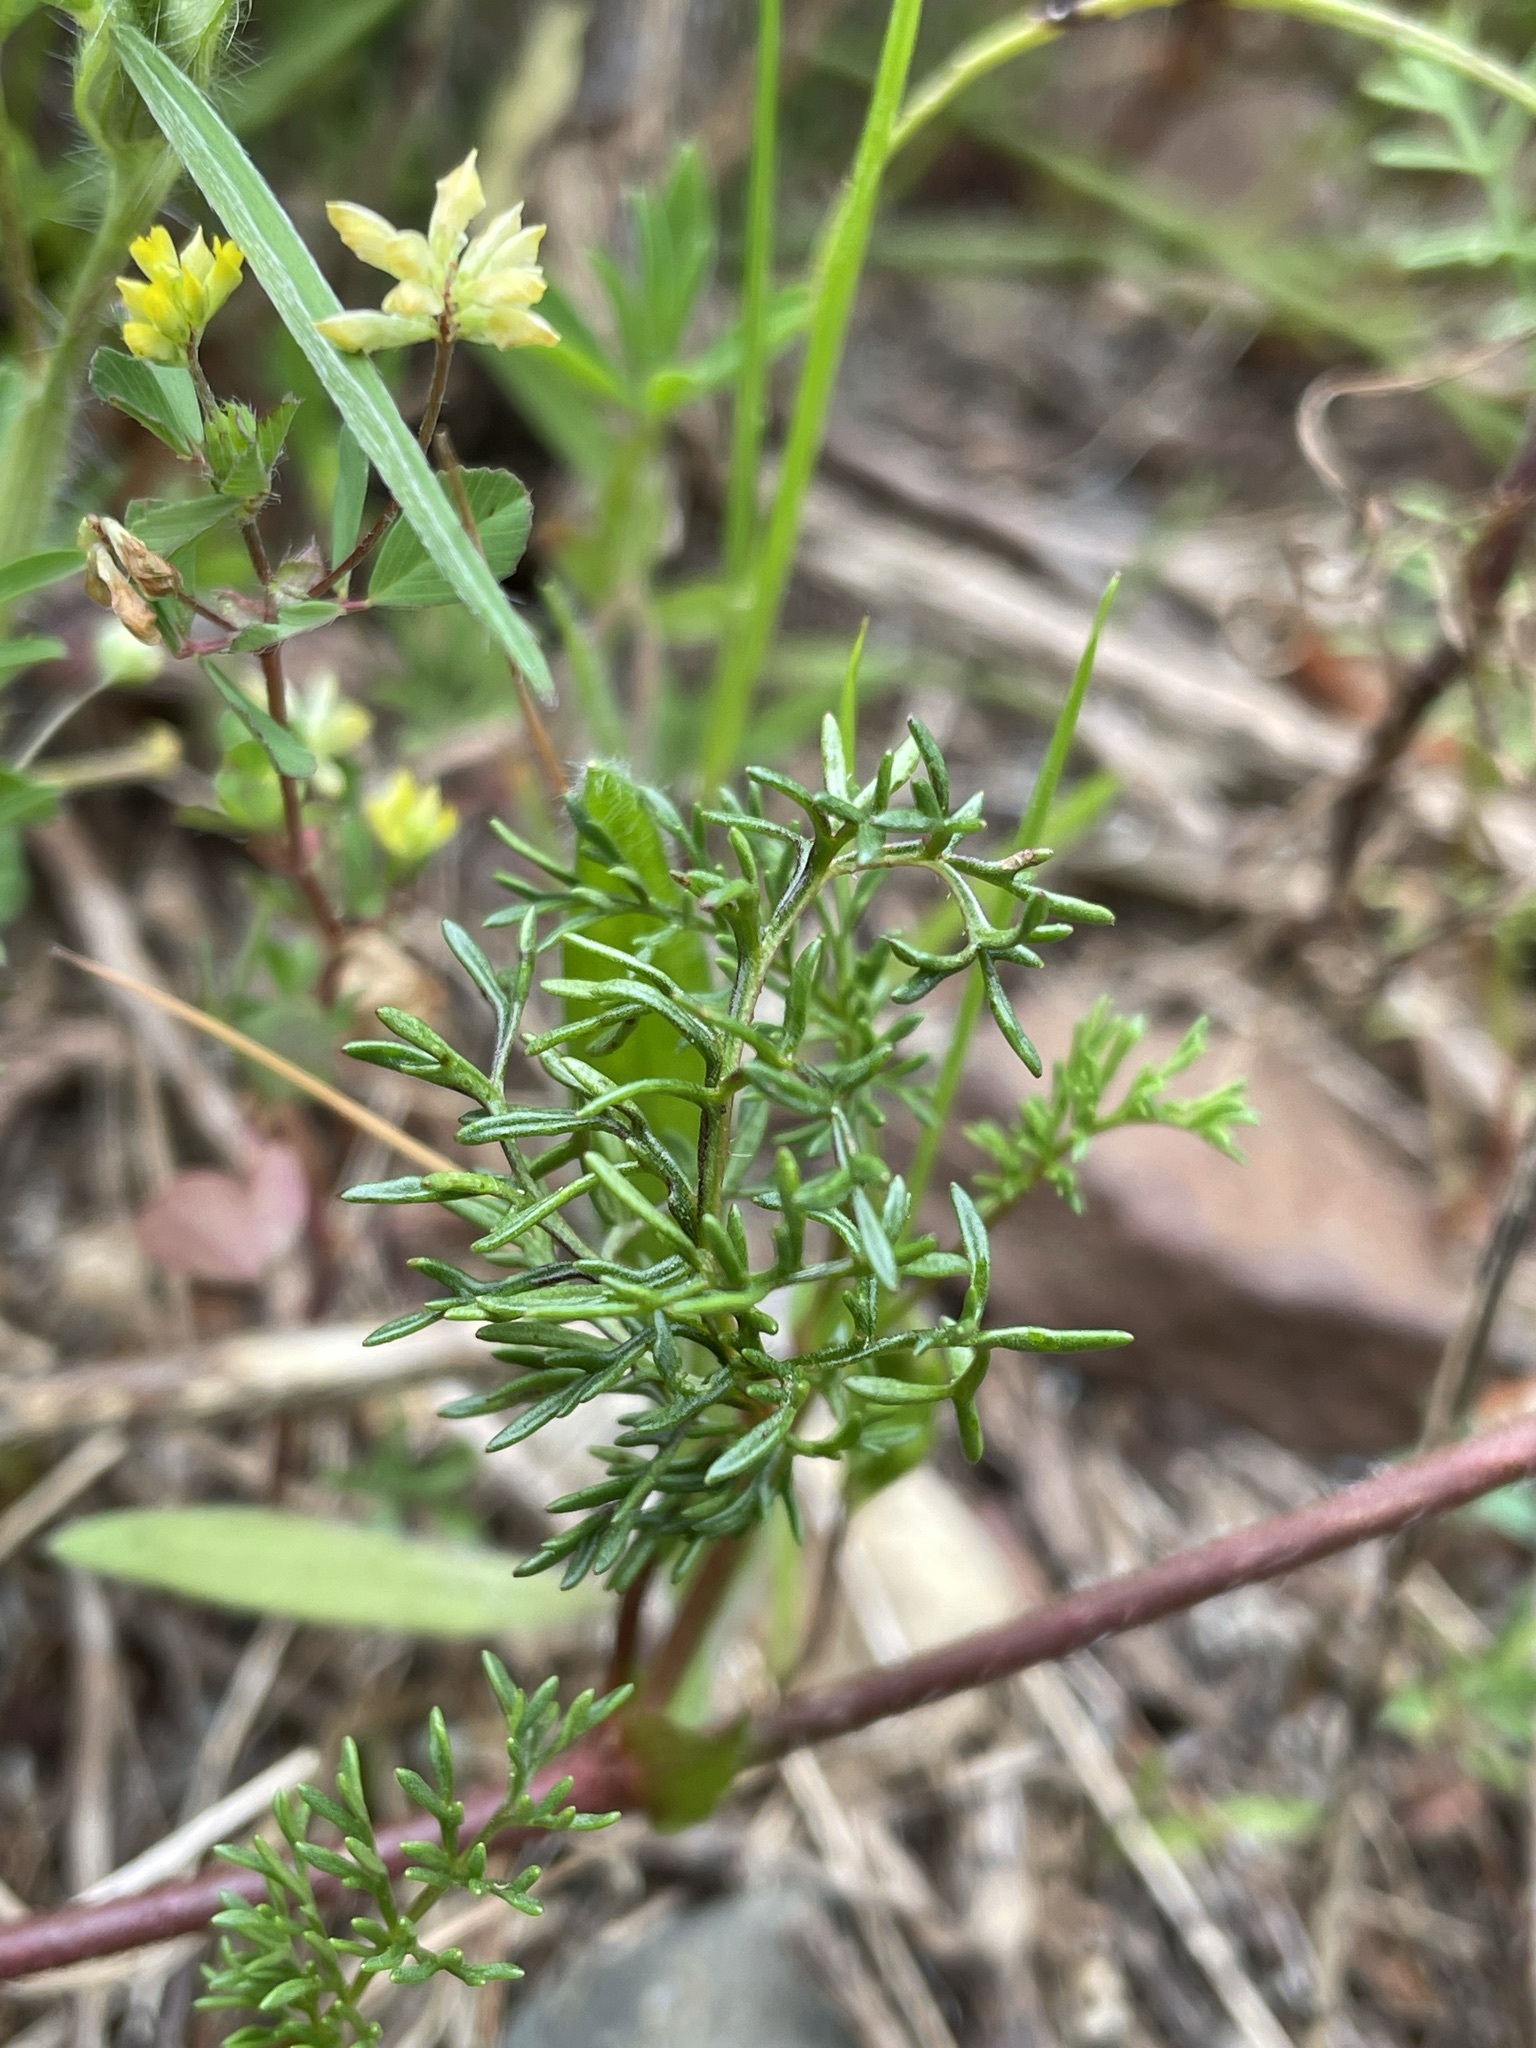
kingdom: Plantae
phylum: Tracheophyta
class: Magnoliopsida
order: Geraniales
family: Geraniaceae
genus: Pelargonium
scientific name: Pelargonium myrrhifolium
